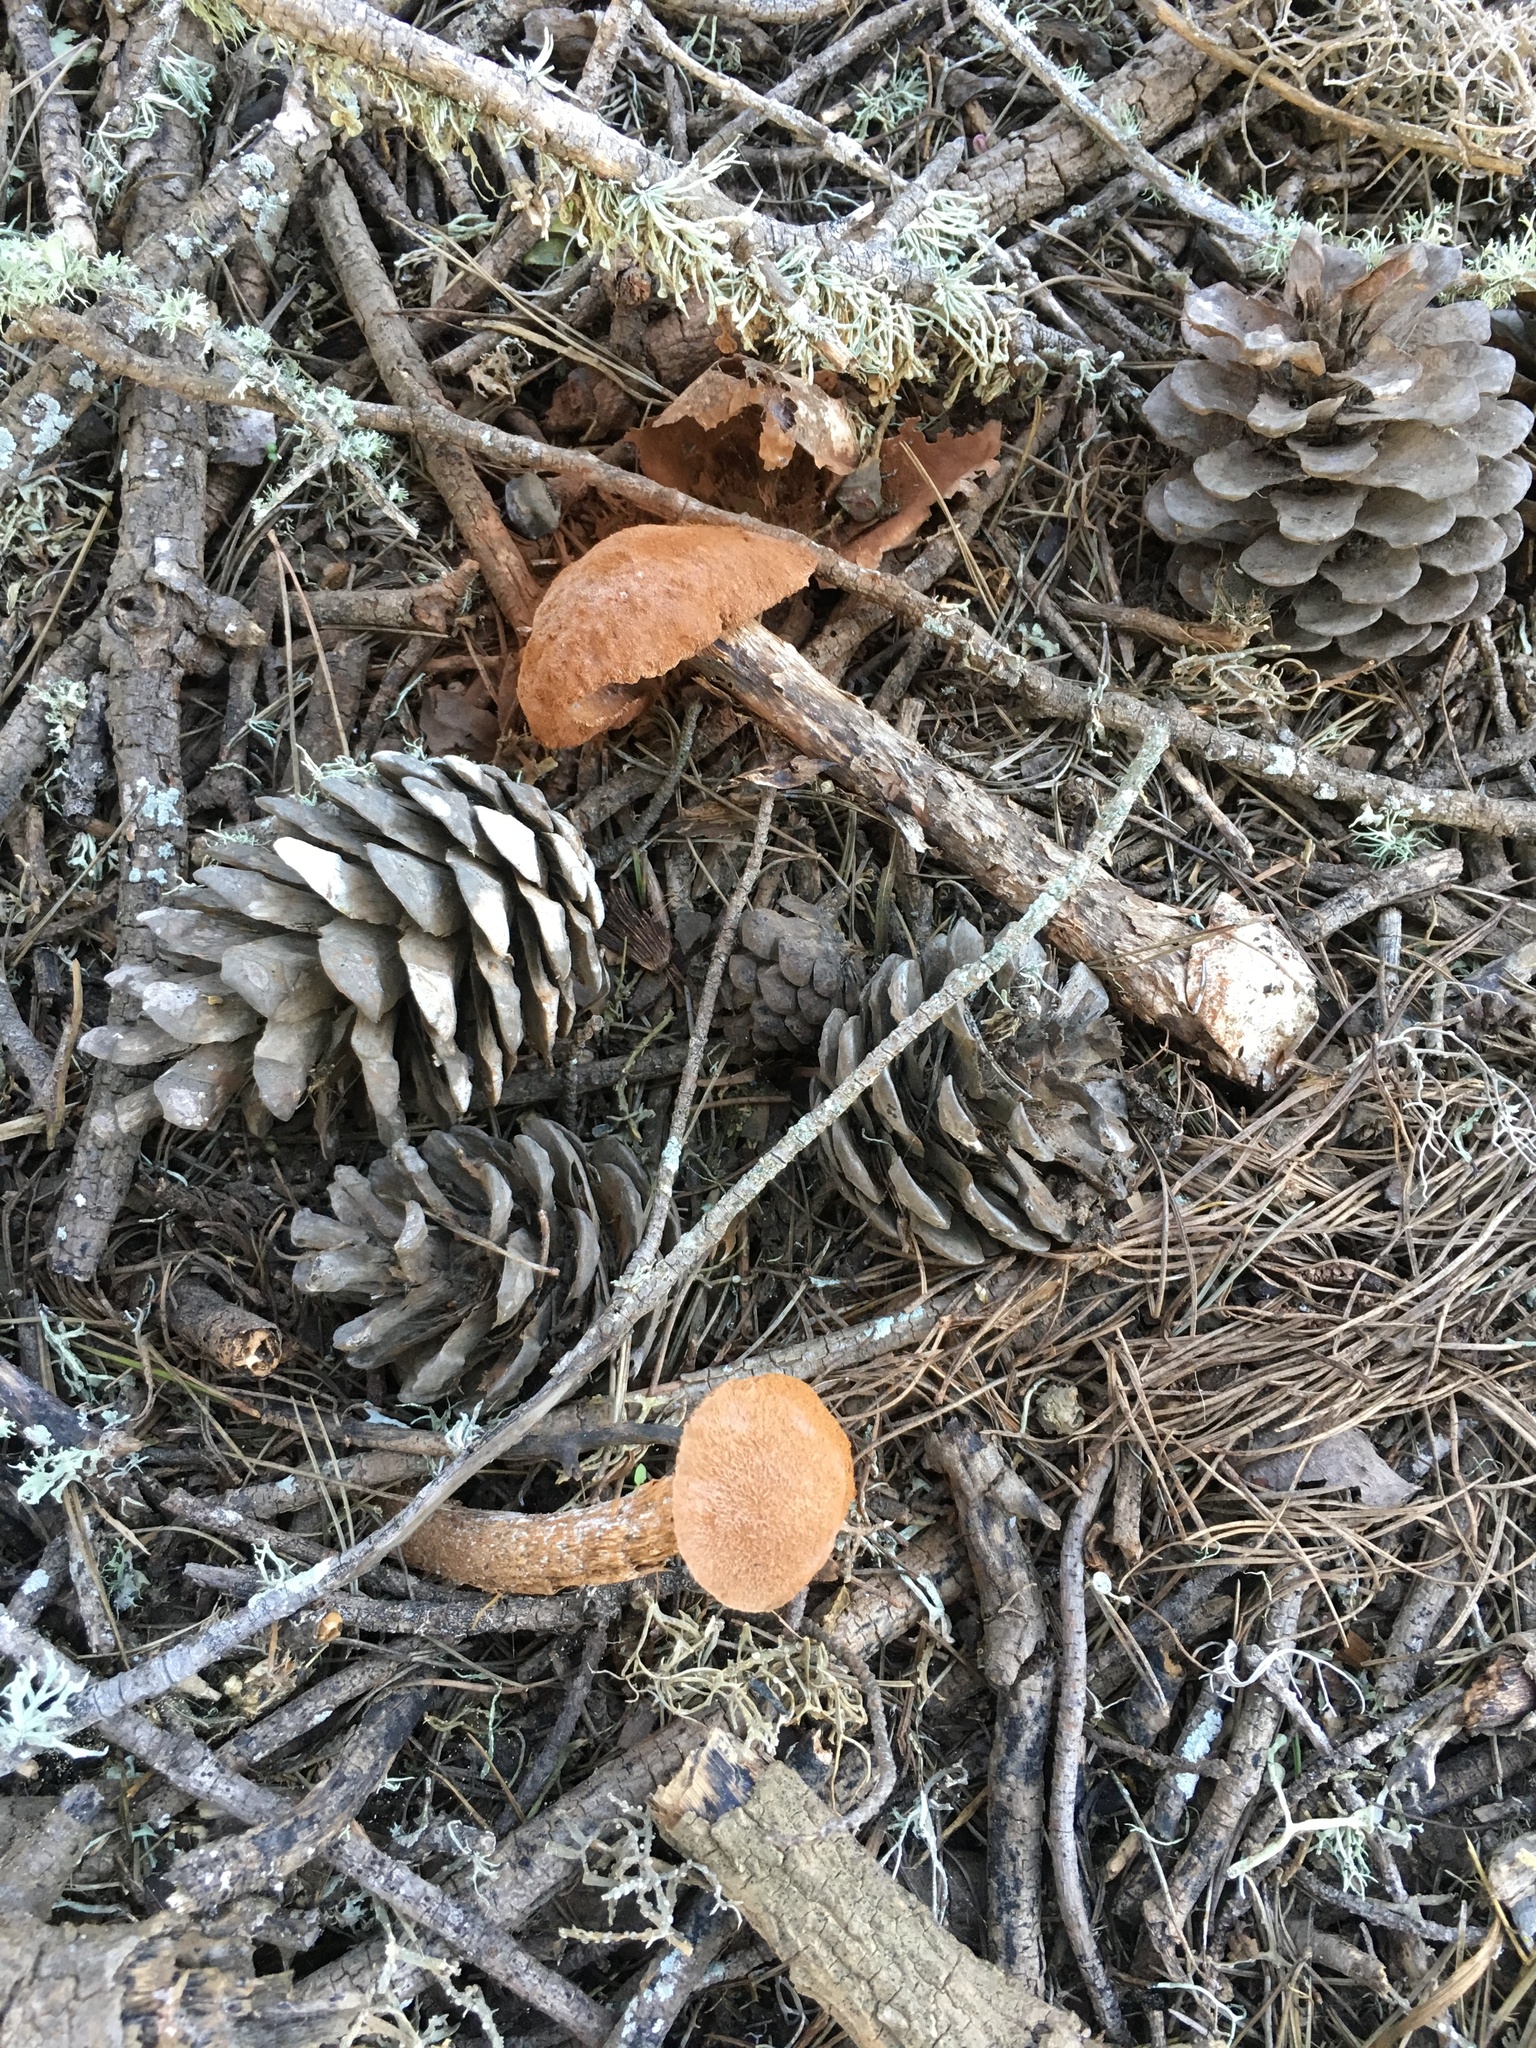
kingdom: Fungi
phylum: Basidiomycota
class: Agaricomycetes
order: Agaricales
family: Agaricaceae
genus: Battarrea
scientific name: Battarrea phalloides
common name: Sandy stiltball
